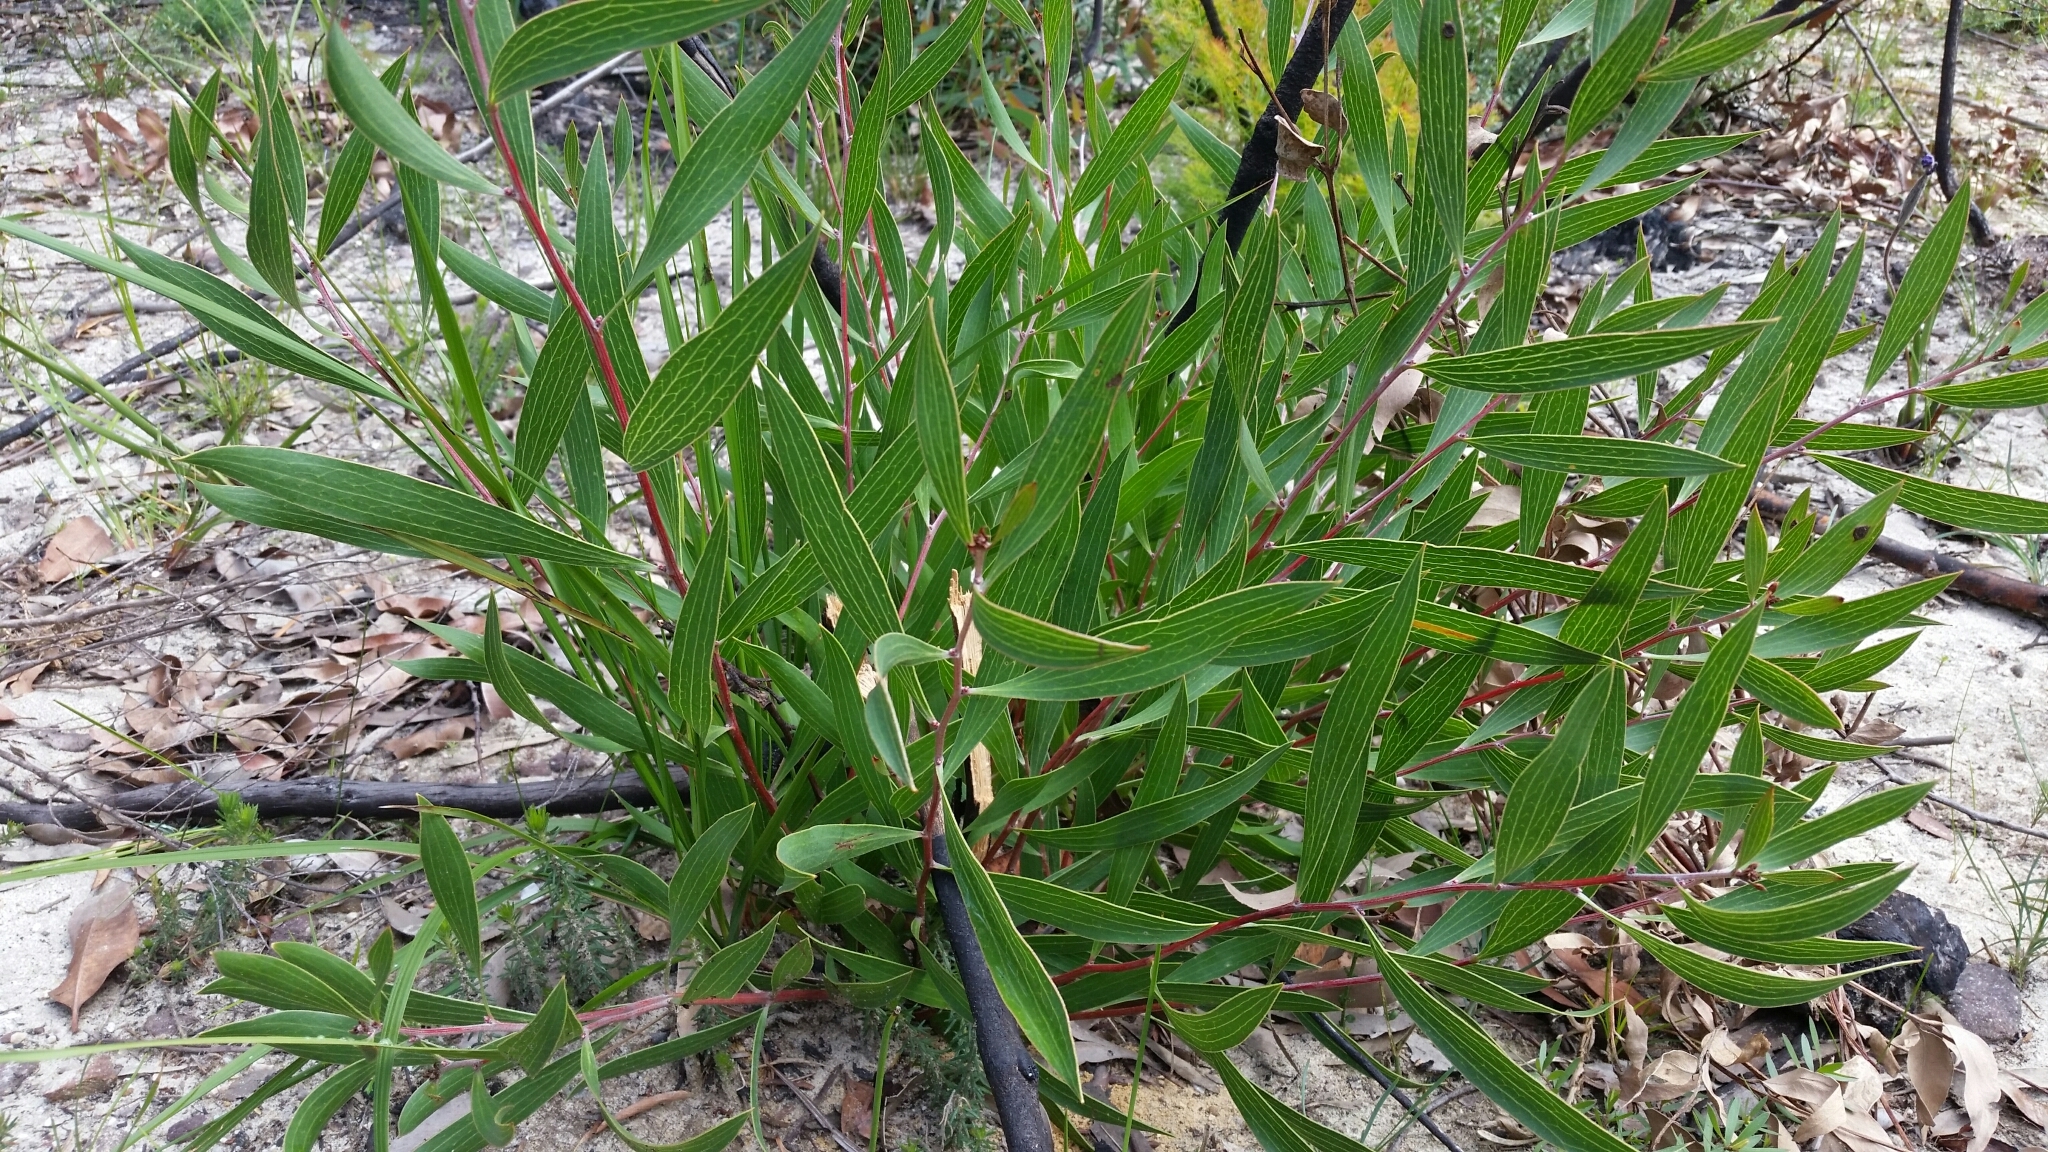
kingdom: Plantae
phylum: Tracheophyta
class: Magnoliopsida
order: Proteales
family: Proteaceae
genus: Hakea
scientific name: Hakea laevipes
